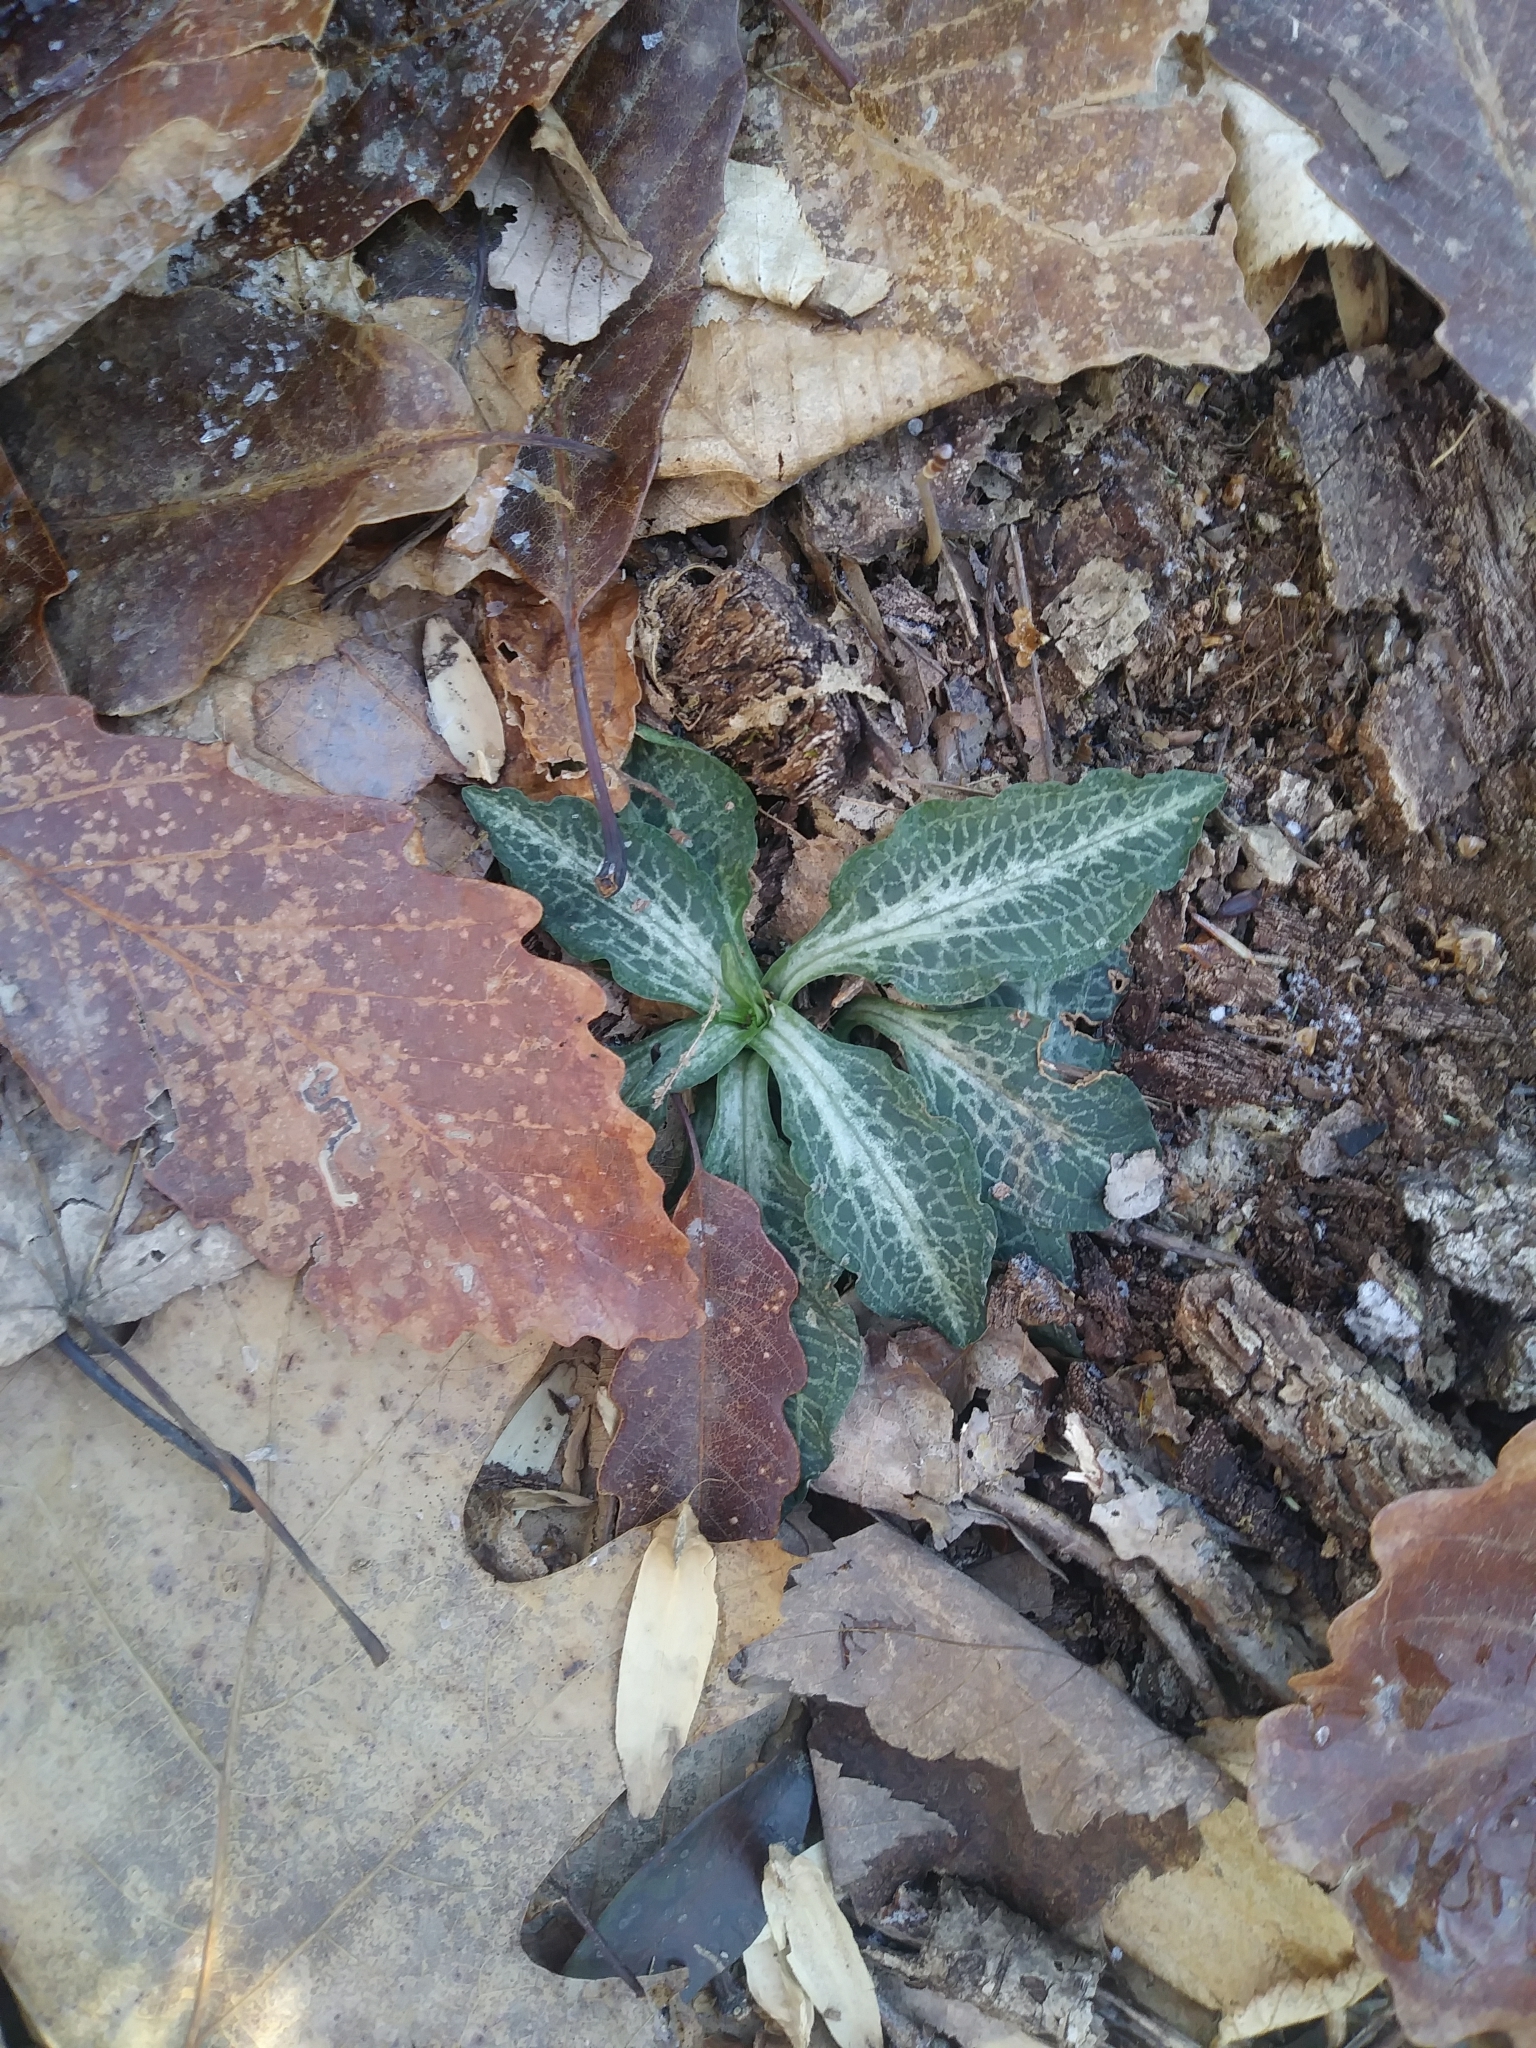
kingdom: Plantae
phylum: Tracheophyta
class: Liliopsida
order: Asparagales
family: Orchidaceae
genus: Goodyera
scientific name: Goodyera pubescens
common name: Downy rattlesnake-plantain
